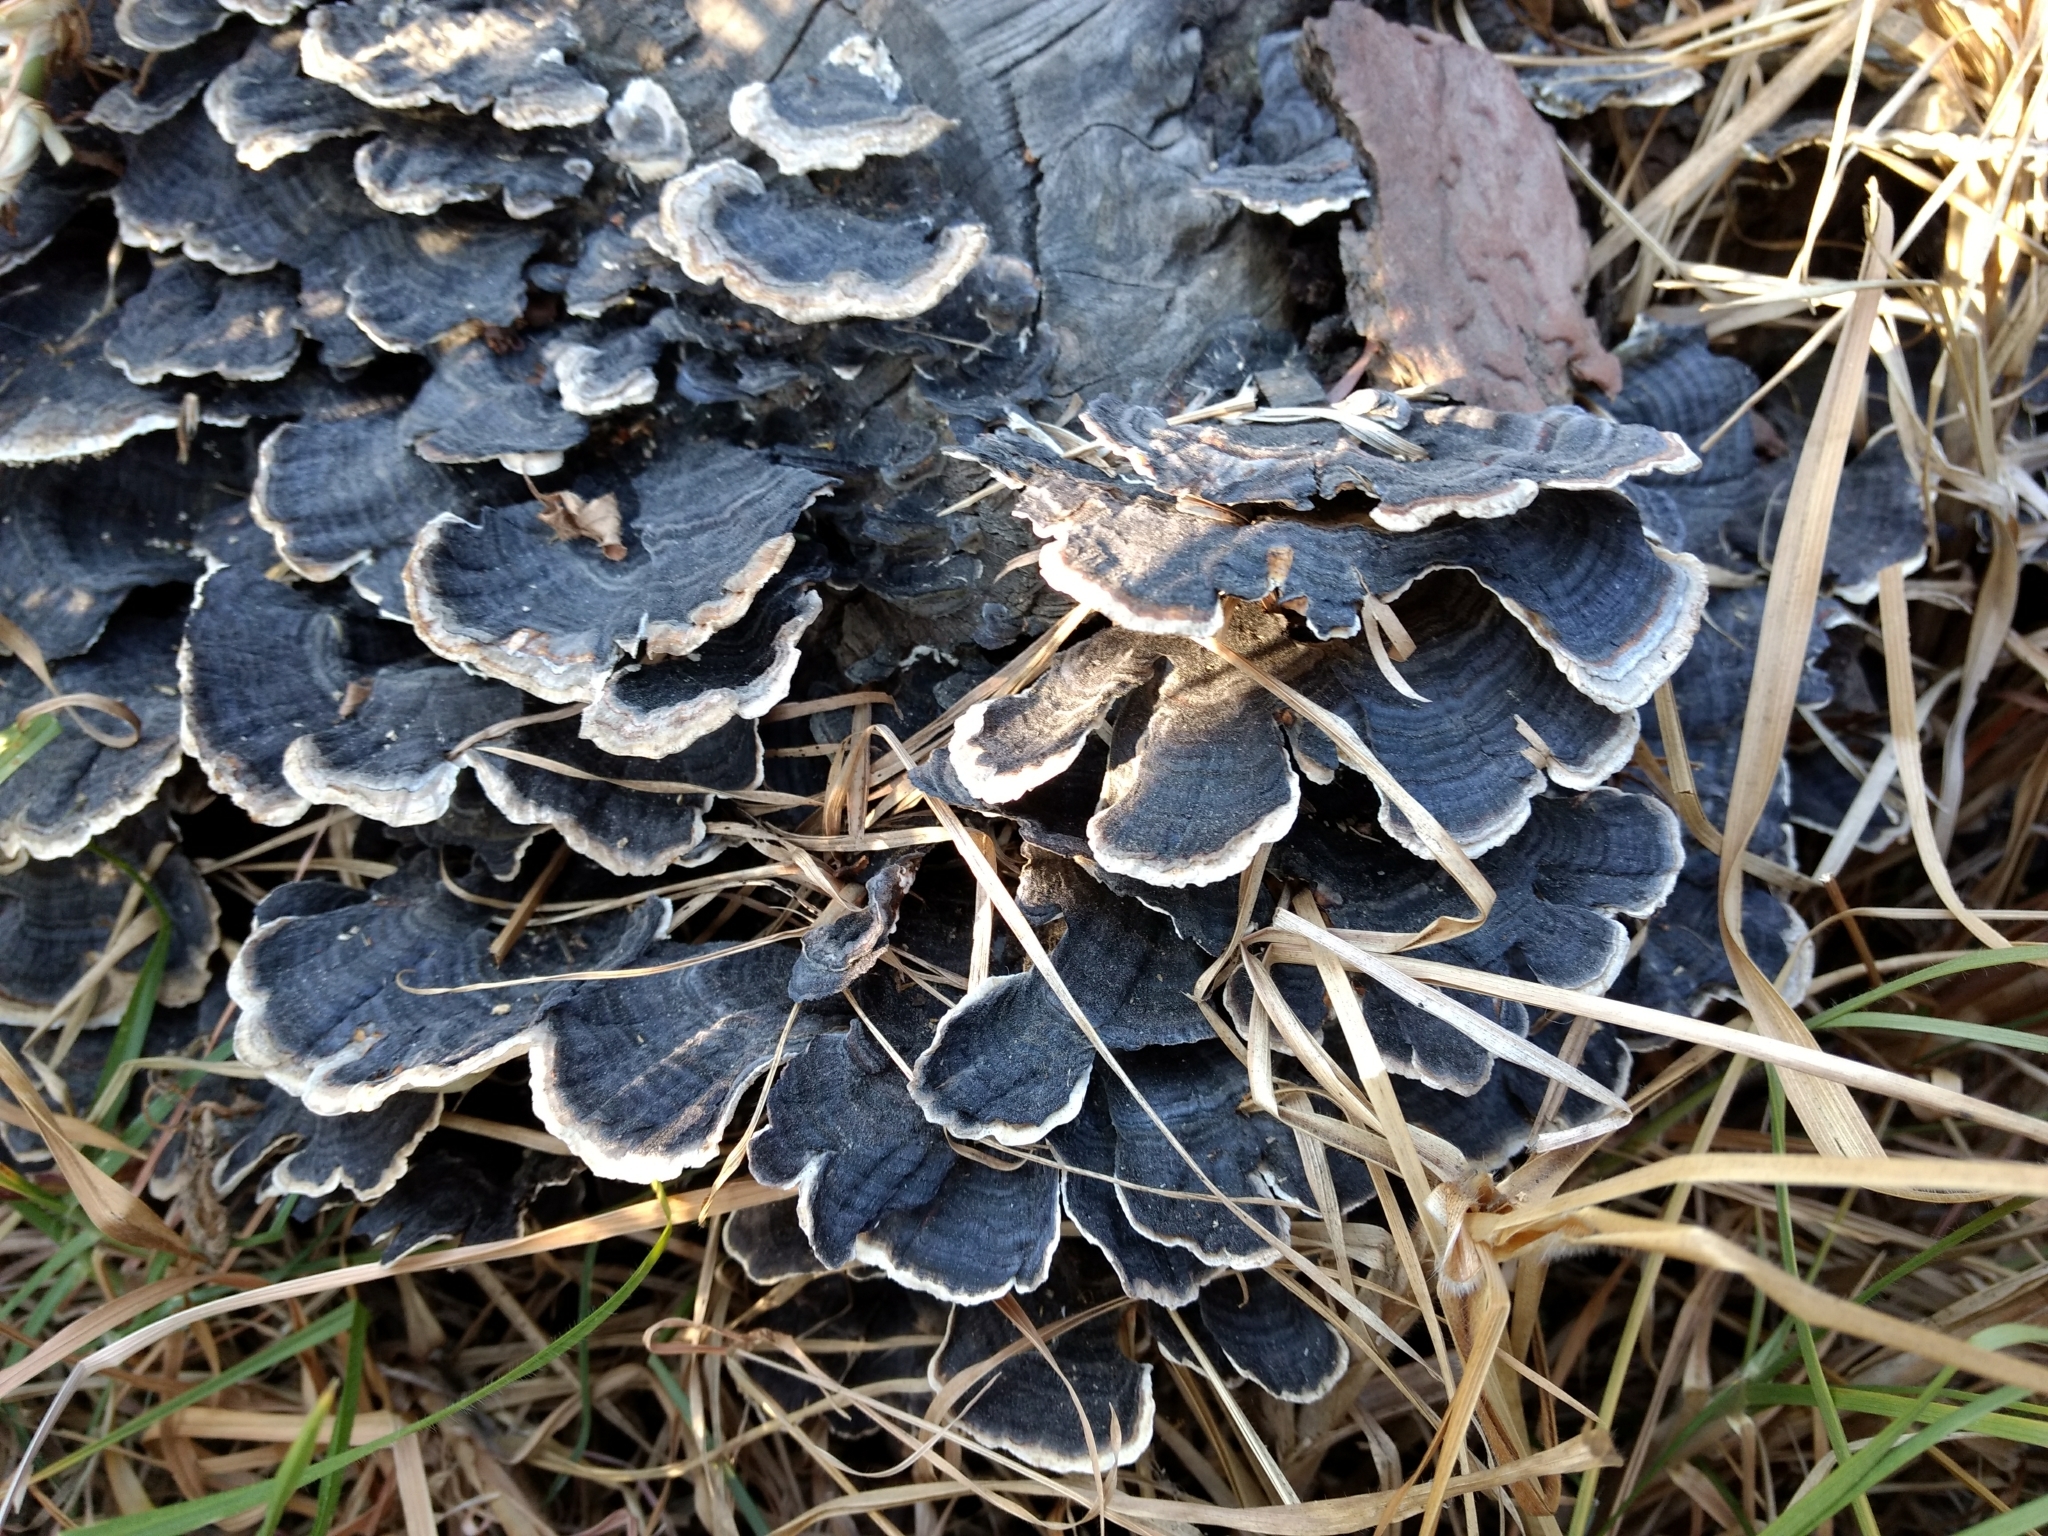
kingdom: Fungi
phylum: Basidiomycota
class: Agaricomycetes
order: Polyporales
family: Polyporaceae
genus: Trametes
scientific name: Trametes versicolor
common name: Turkeytail
